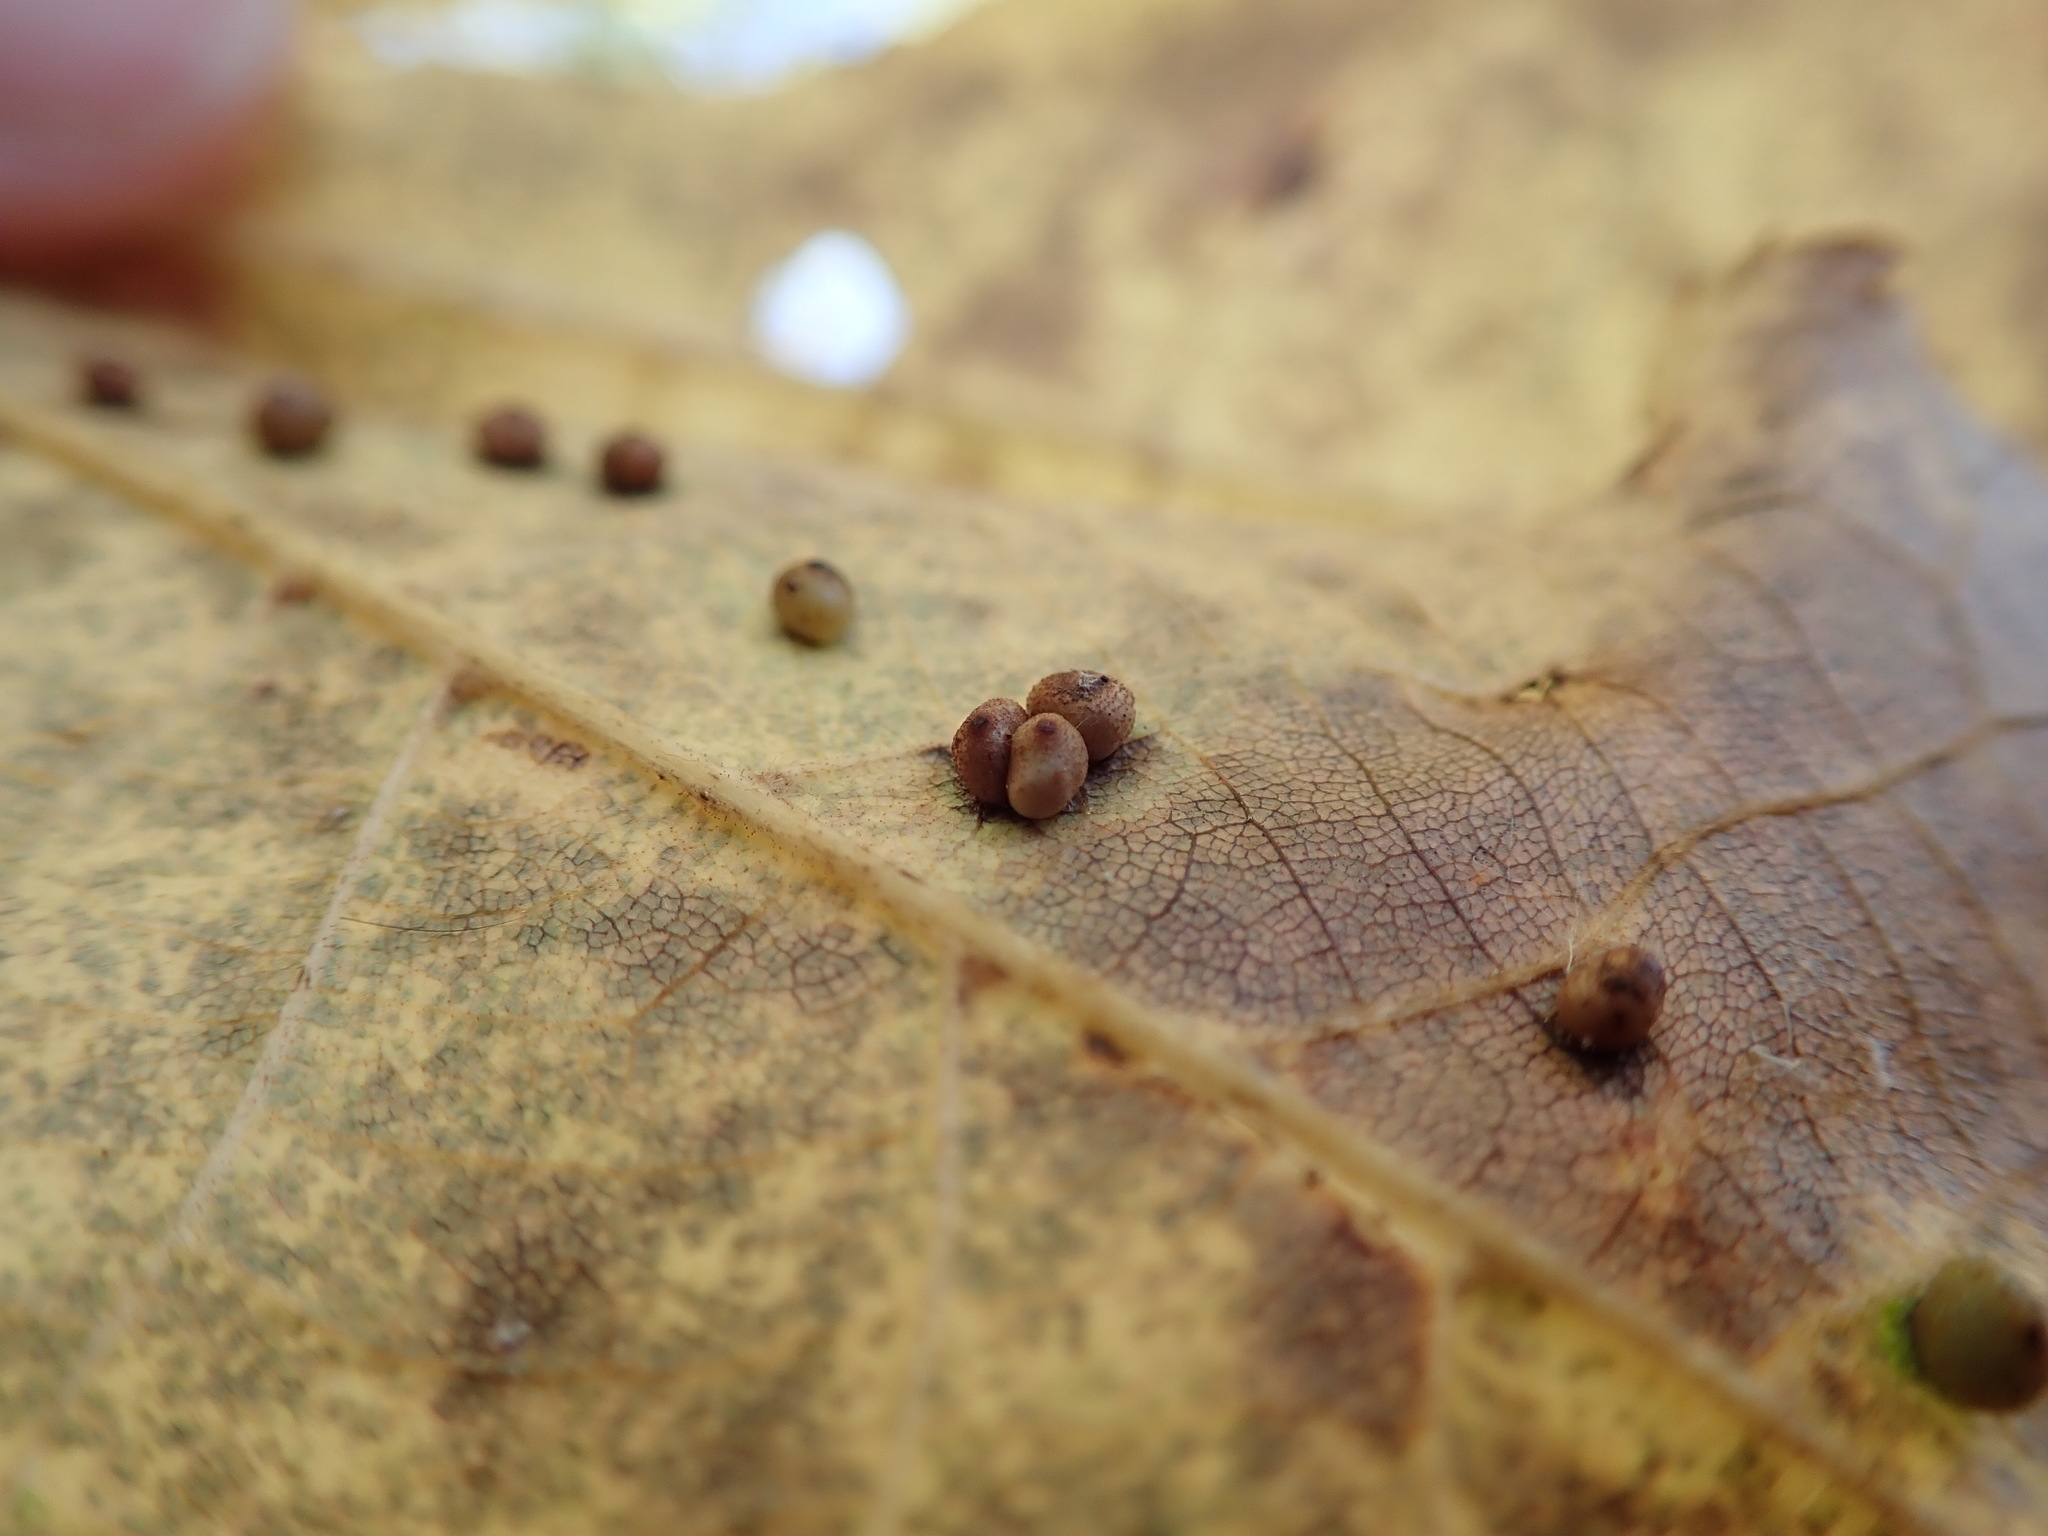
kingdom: Animalia
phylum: Arthropoda
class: Insecta
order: Diptera
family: Cecidomyiidae
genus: Caryomyia
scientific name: Caryomyia caryae
